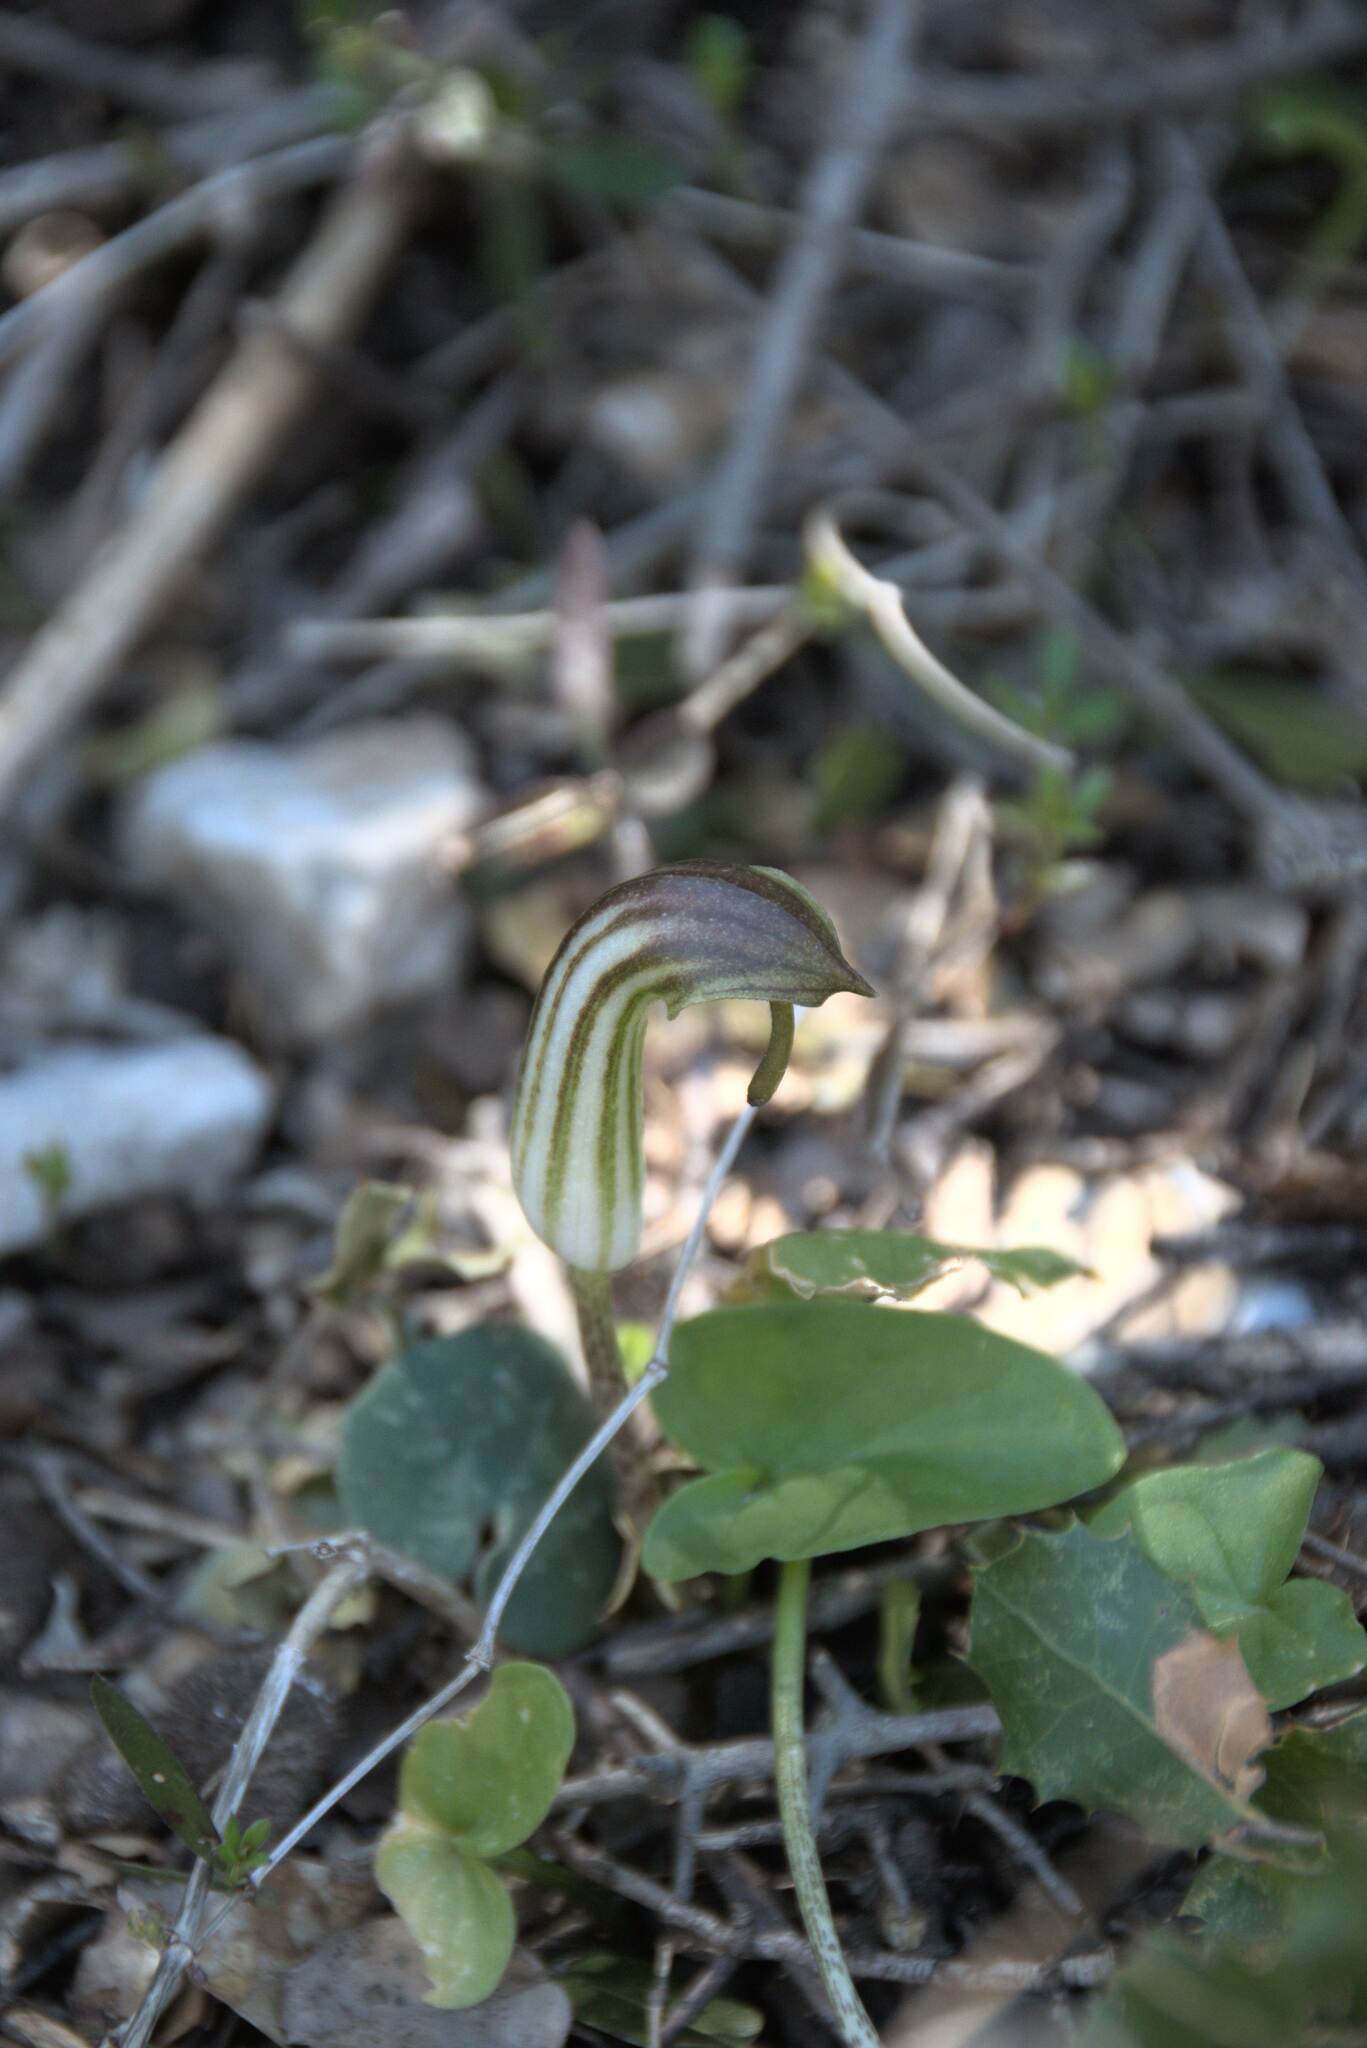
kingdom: Plantae
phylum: Tracheophyta
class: Liliopsida
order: Alismatales
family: Araceae
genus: Arisarum
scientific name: Arisarum vulgare
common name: Common arisarum
